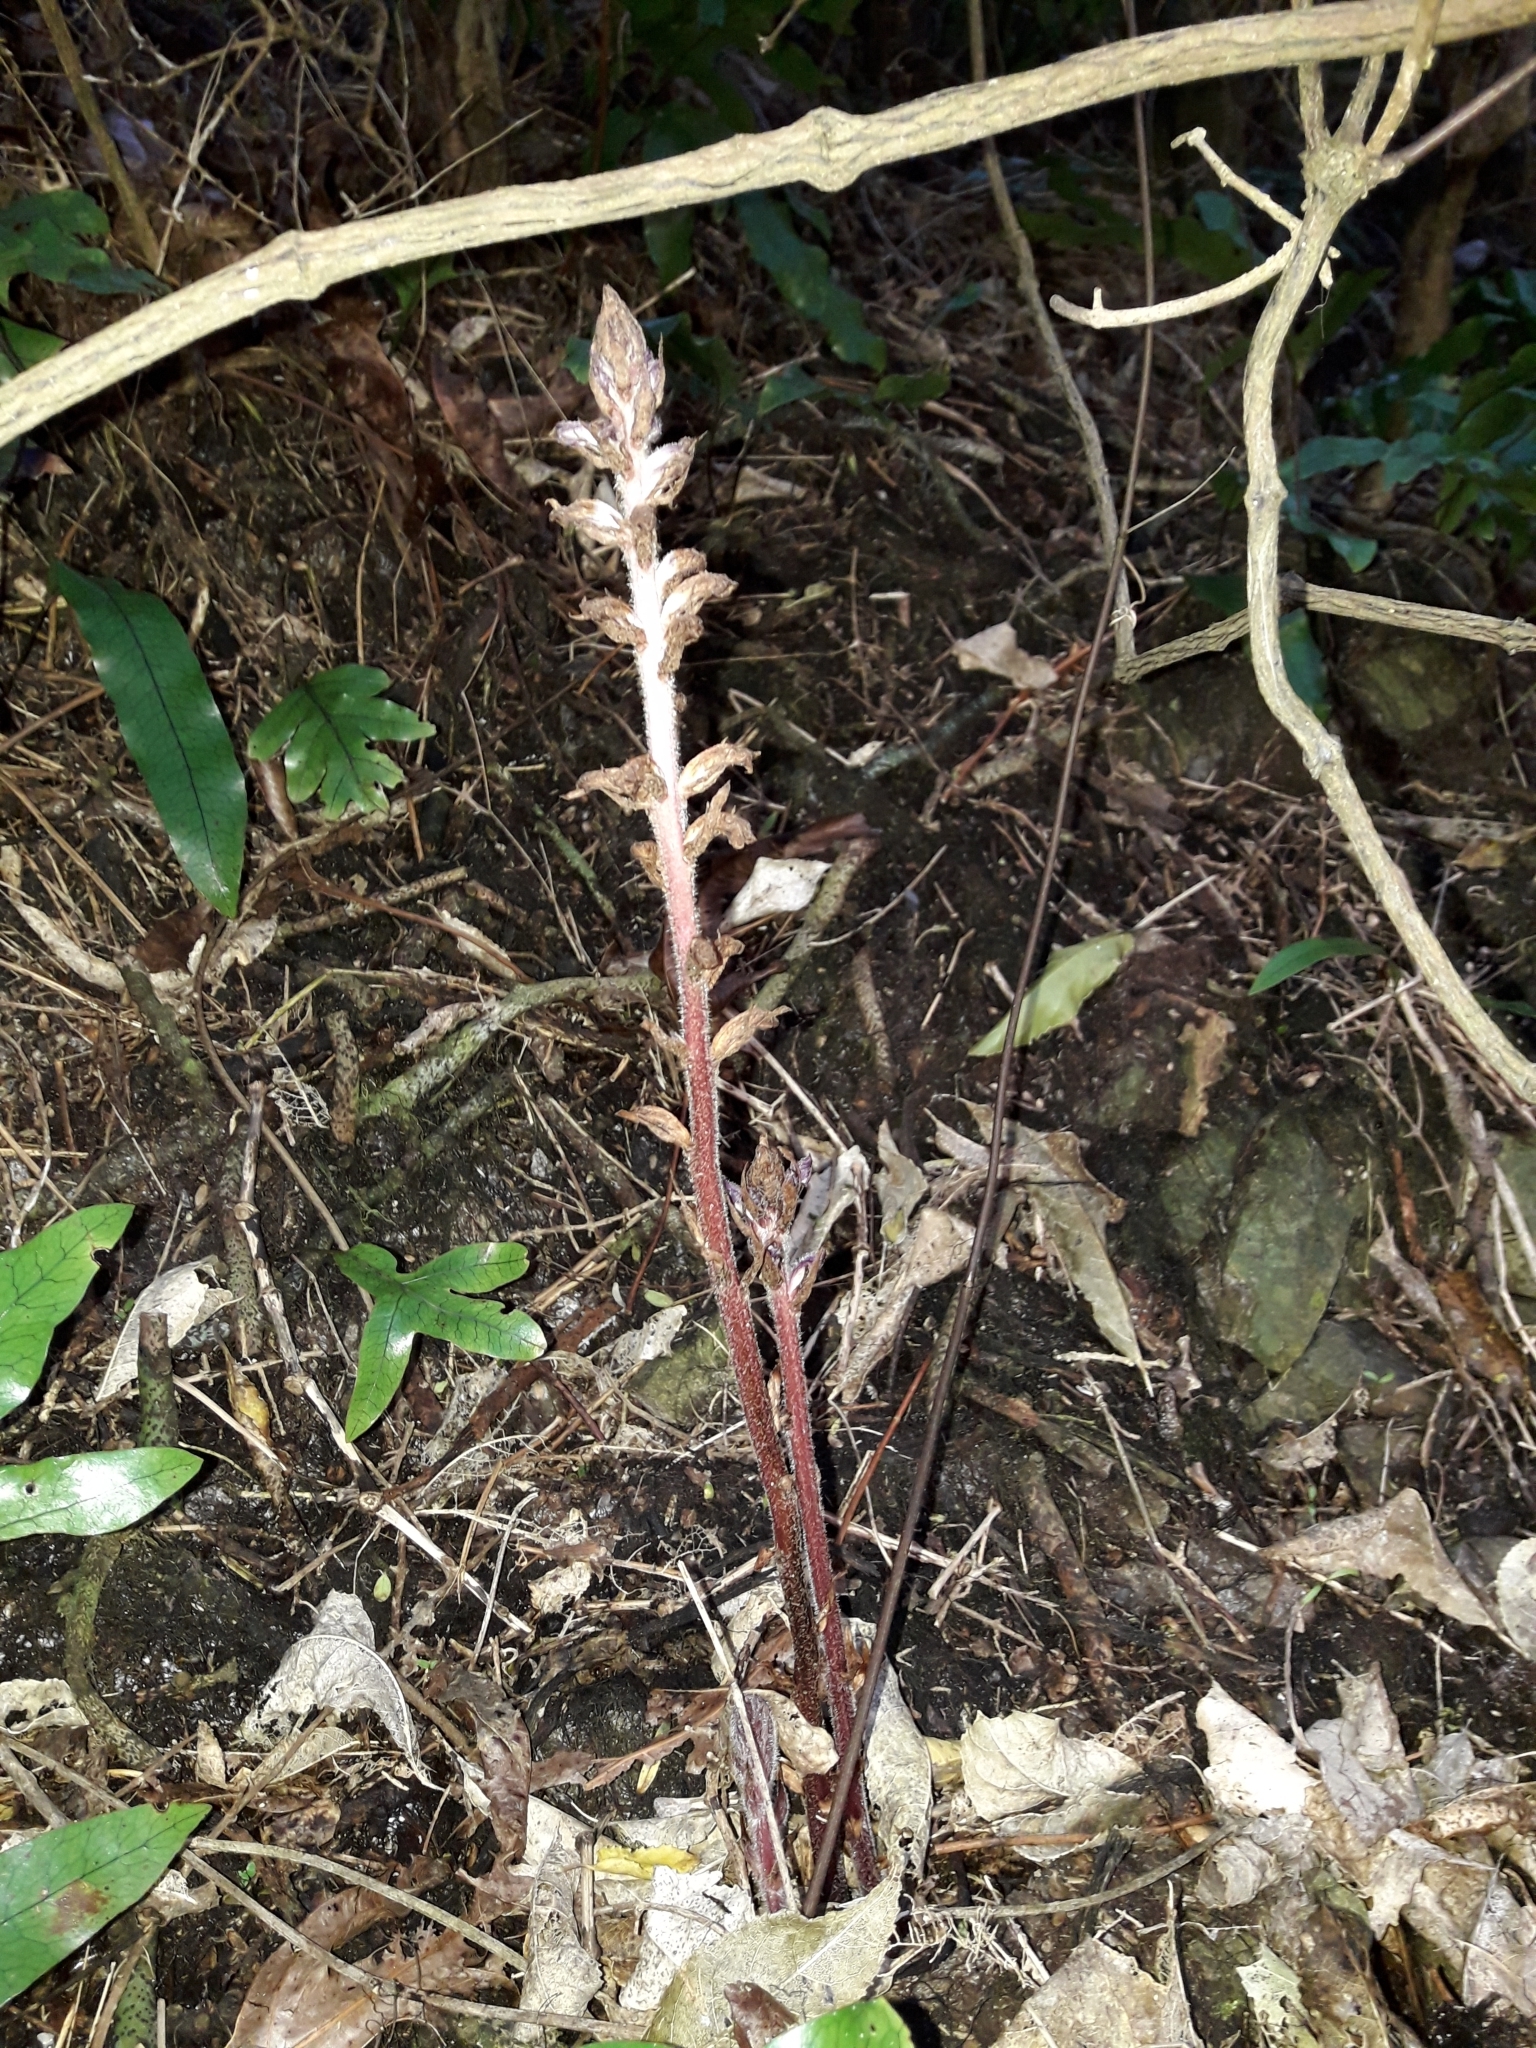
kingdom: Plantae
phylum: Tracheophyta
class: Magnoliopsida
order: Lamiales
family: Orobanchaceae
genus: Orobanche
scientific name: Orobanche minor
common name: Common broomrape
